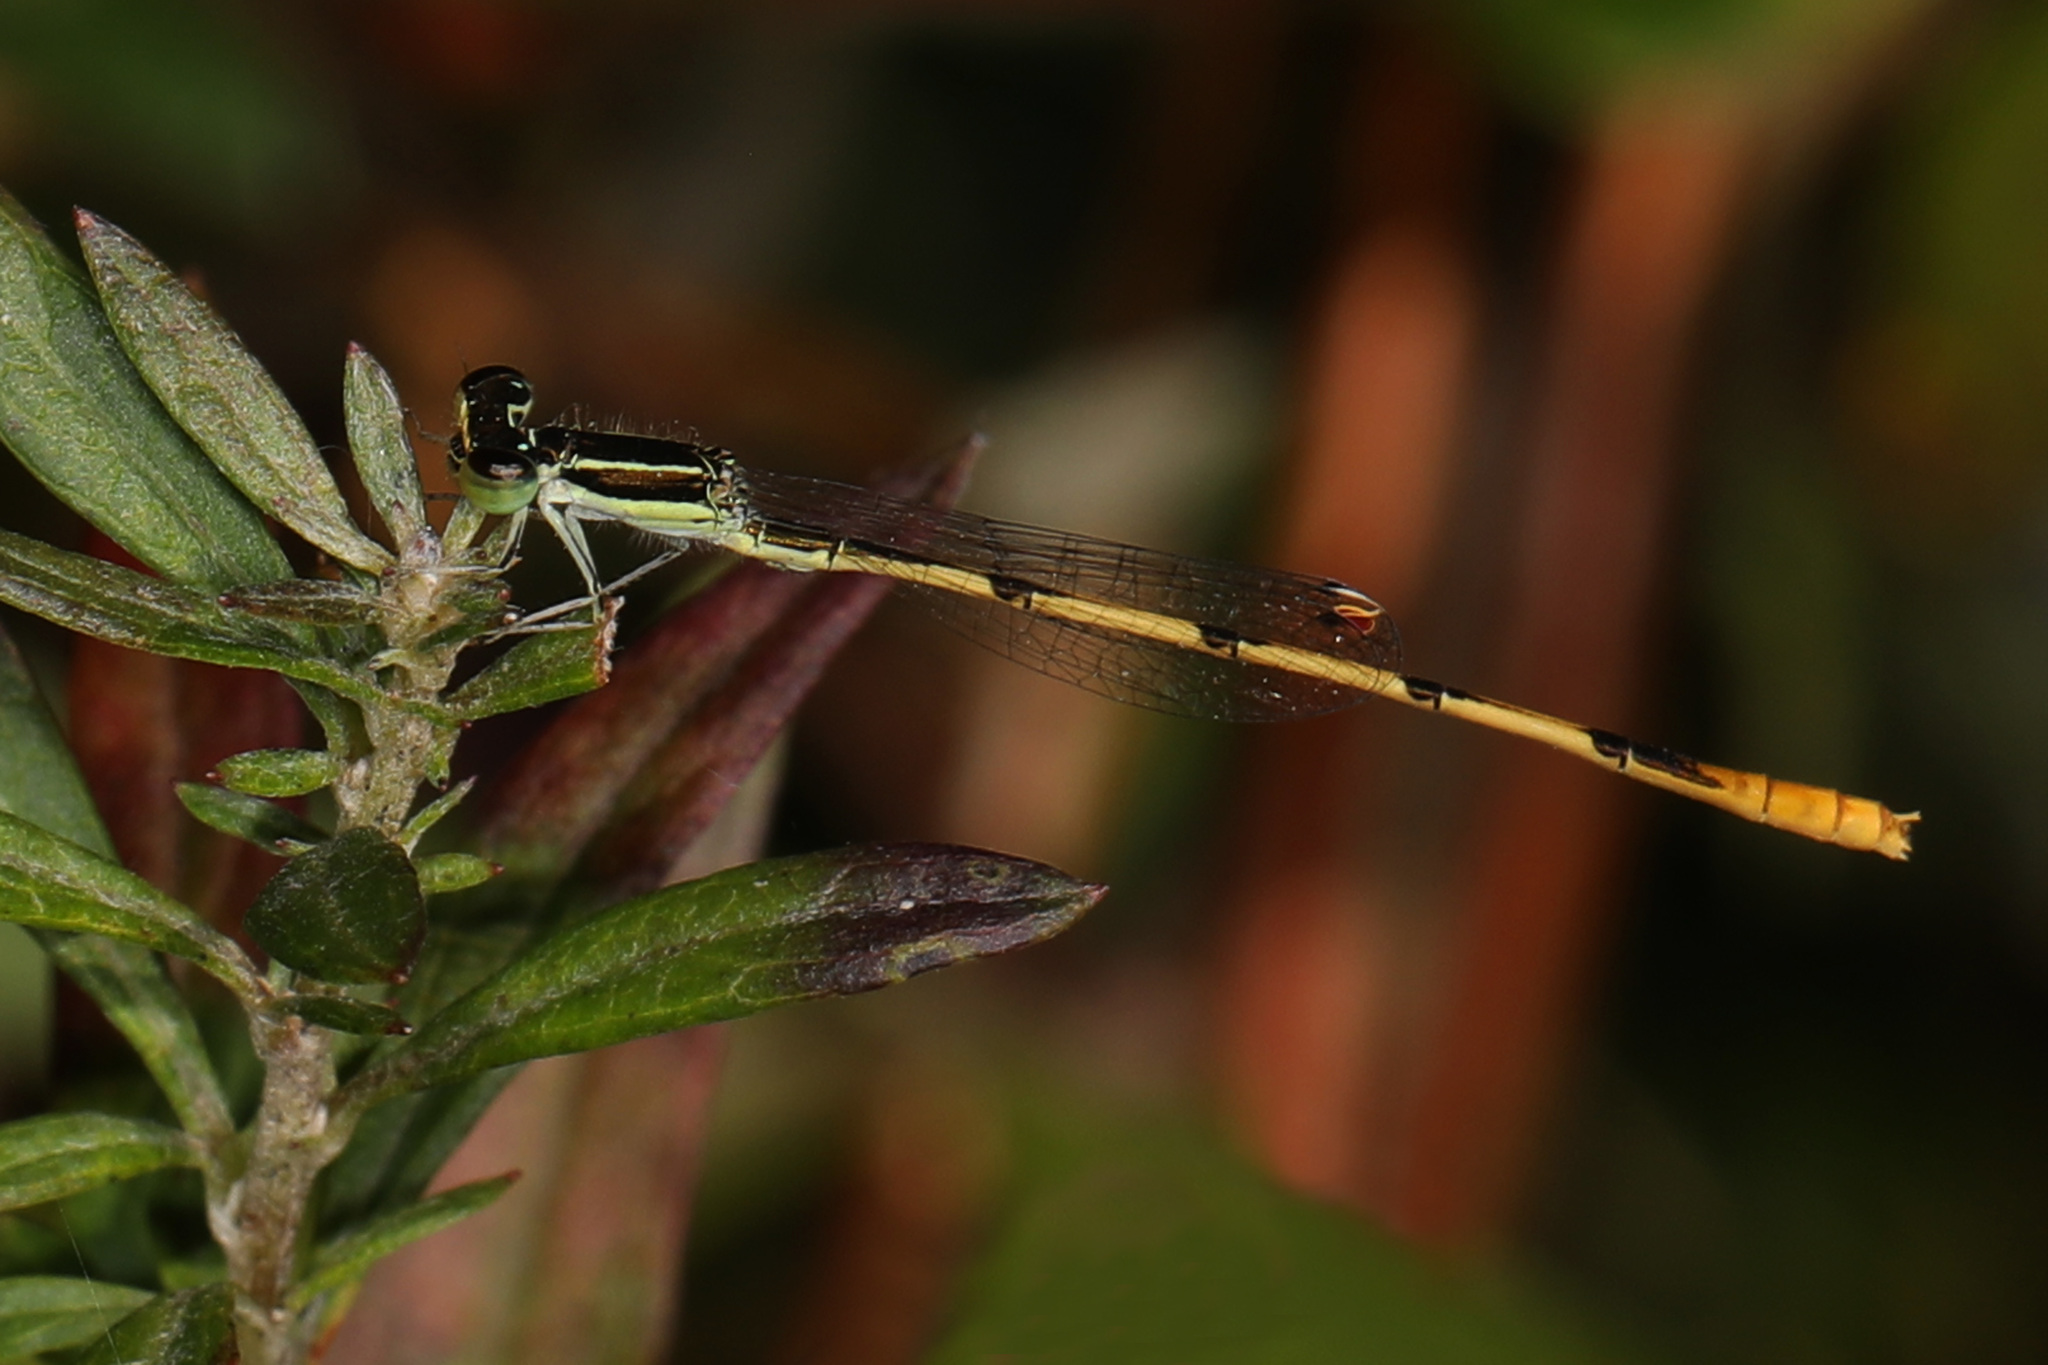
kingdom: Animalia
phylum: Arthropoda
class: Insecta
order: Odonata
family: Coenagrionidae
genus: Ischnura
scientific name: Ischnura hastata
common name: Citrine forktail
